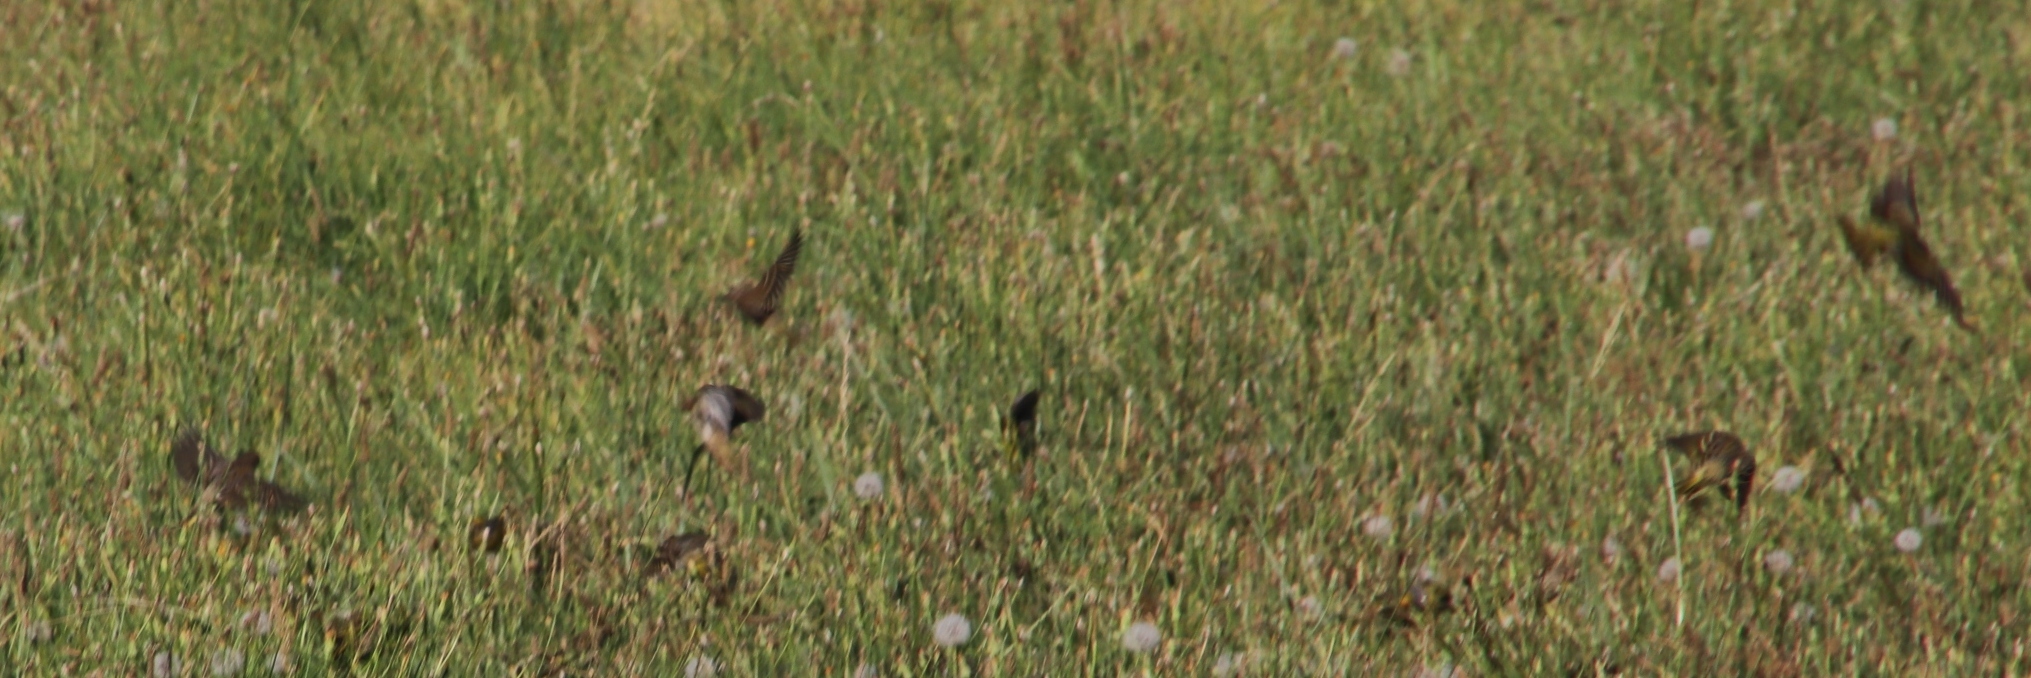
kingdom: Animalia
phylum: Chordata
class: Aves
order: Passeriformes
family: Fringillidae
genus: Serinus
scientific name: Serinus canicollis
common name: Cape canary
